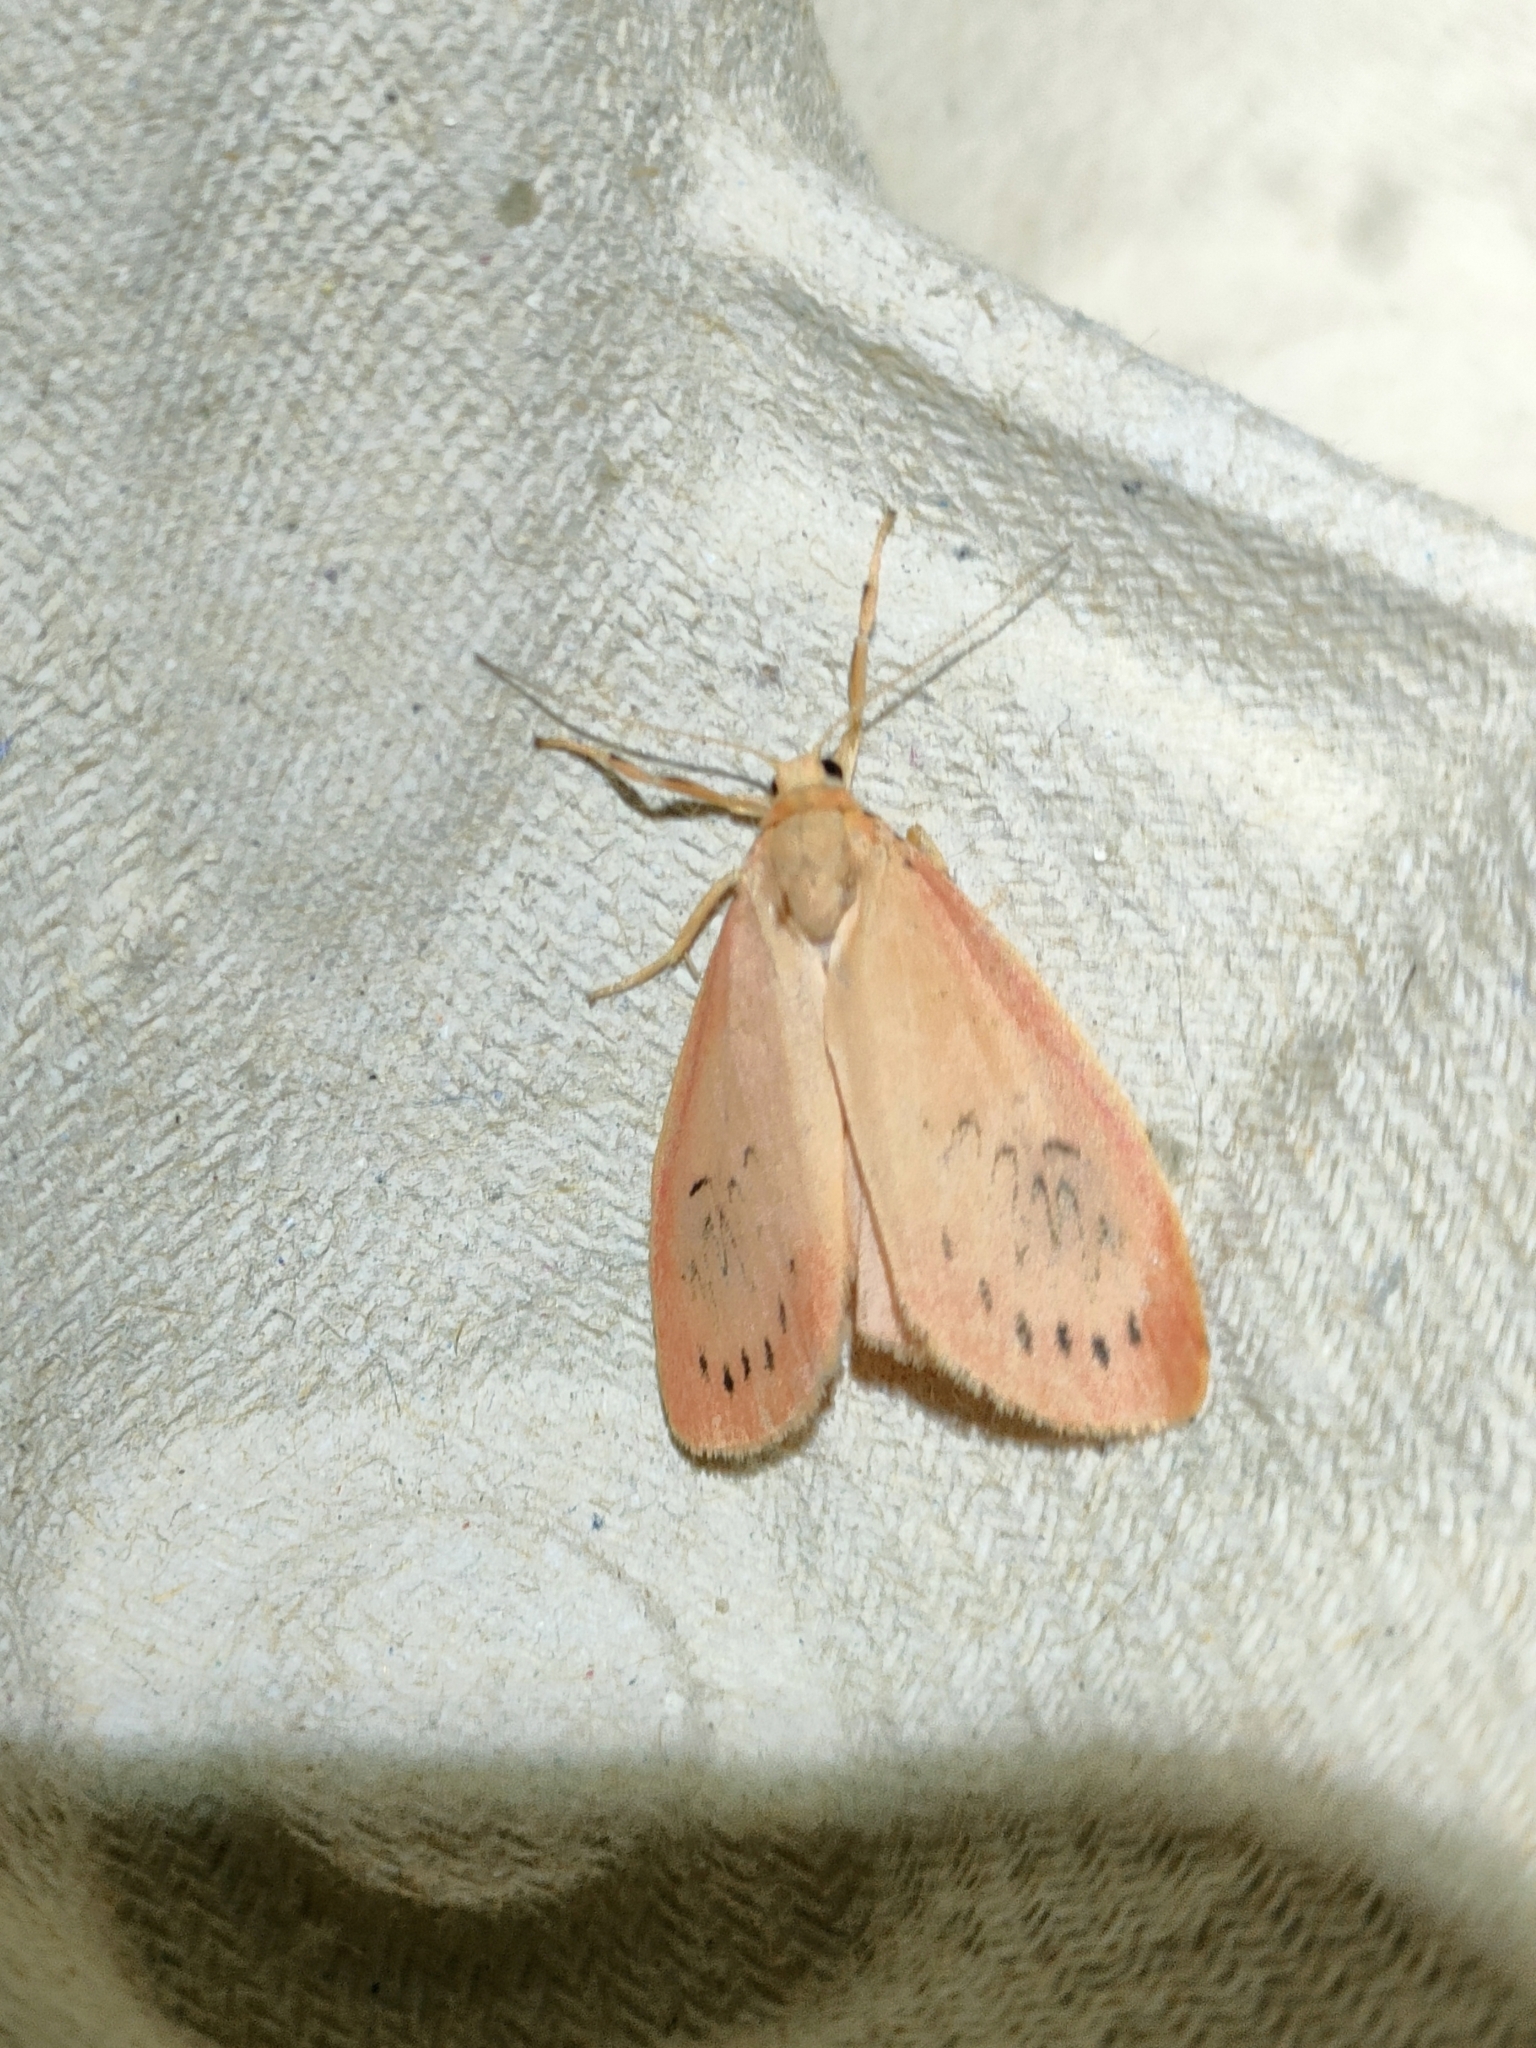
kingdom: Animalia
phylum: Arthropoda
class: Insecta
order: Lepidoptera
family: Erebidae
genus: Miltochrista
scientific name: Miltochrista miniata
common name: Rosy footman
